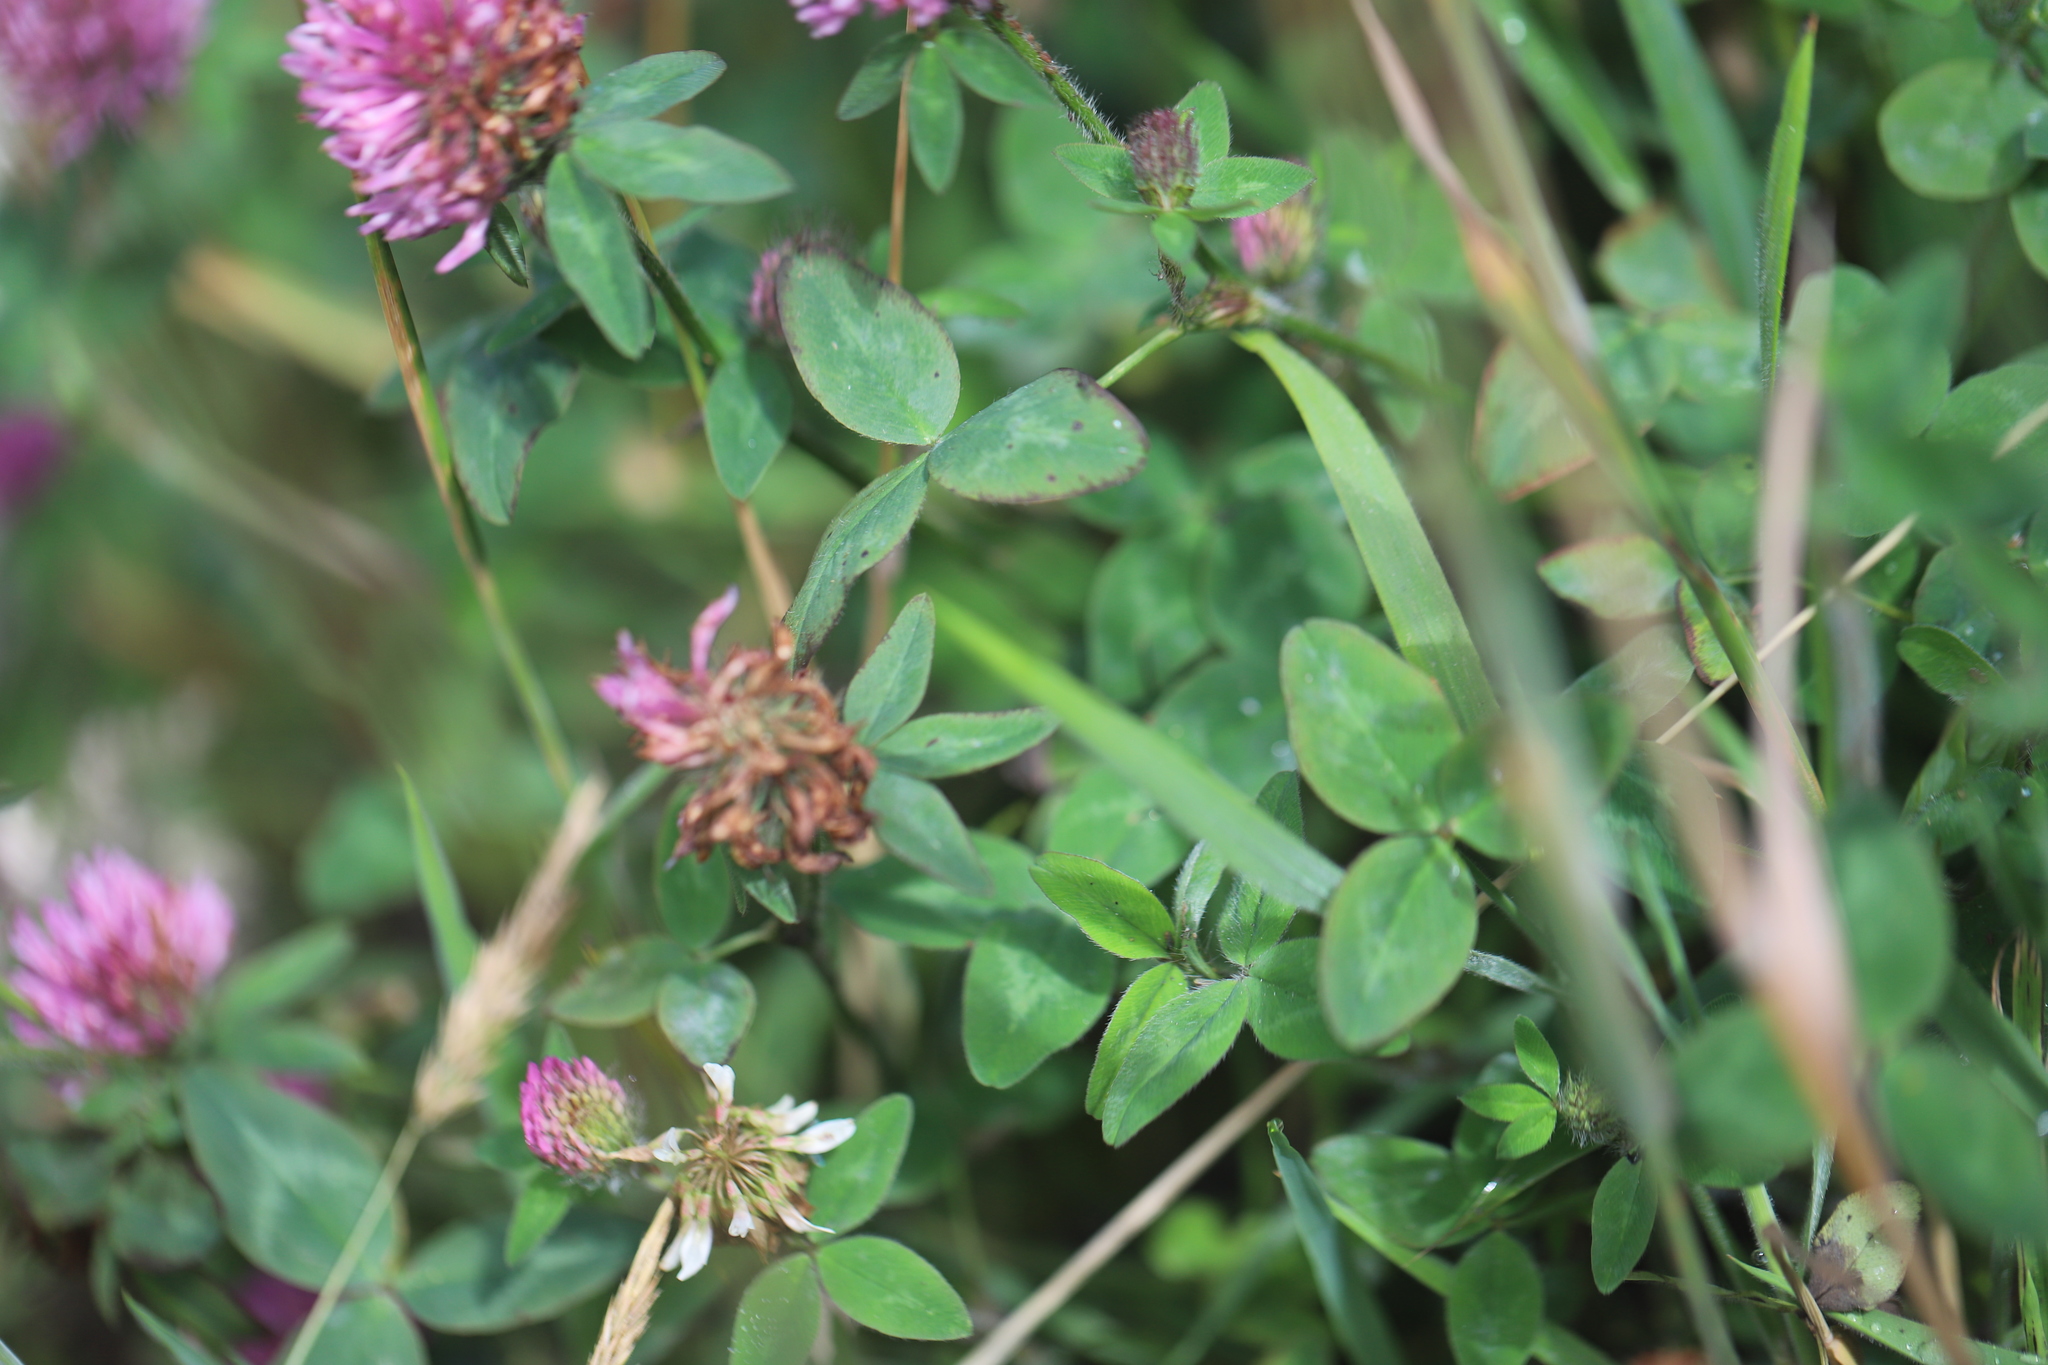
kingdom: Plantae
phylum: Tracheophyta
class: Magnoliopsida
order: Fabales
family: Fabaceae
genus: Trifolium
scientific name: Trifolium pratense
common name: Red clover
